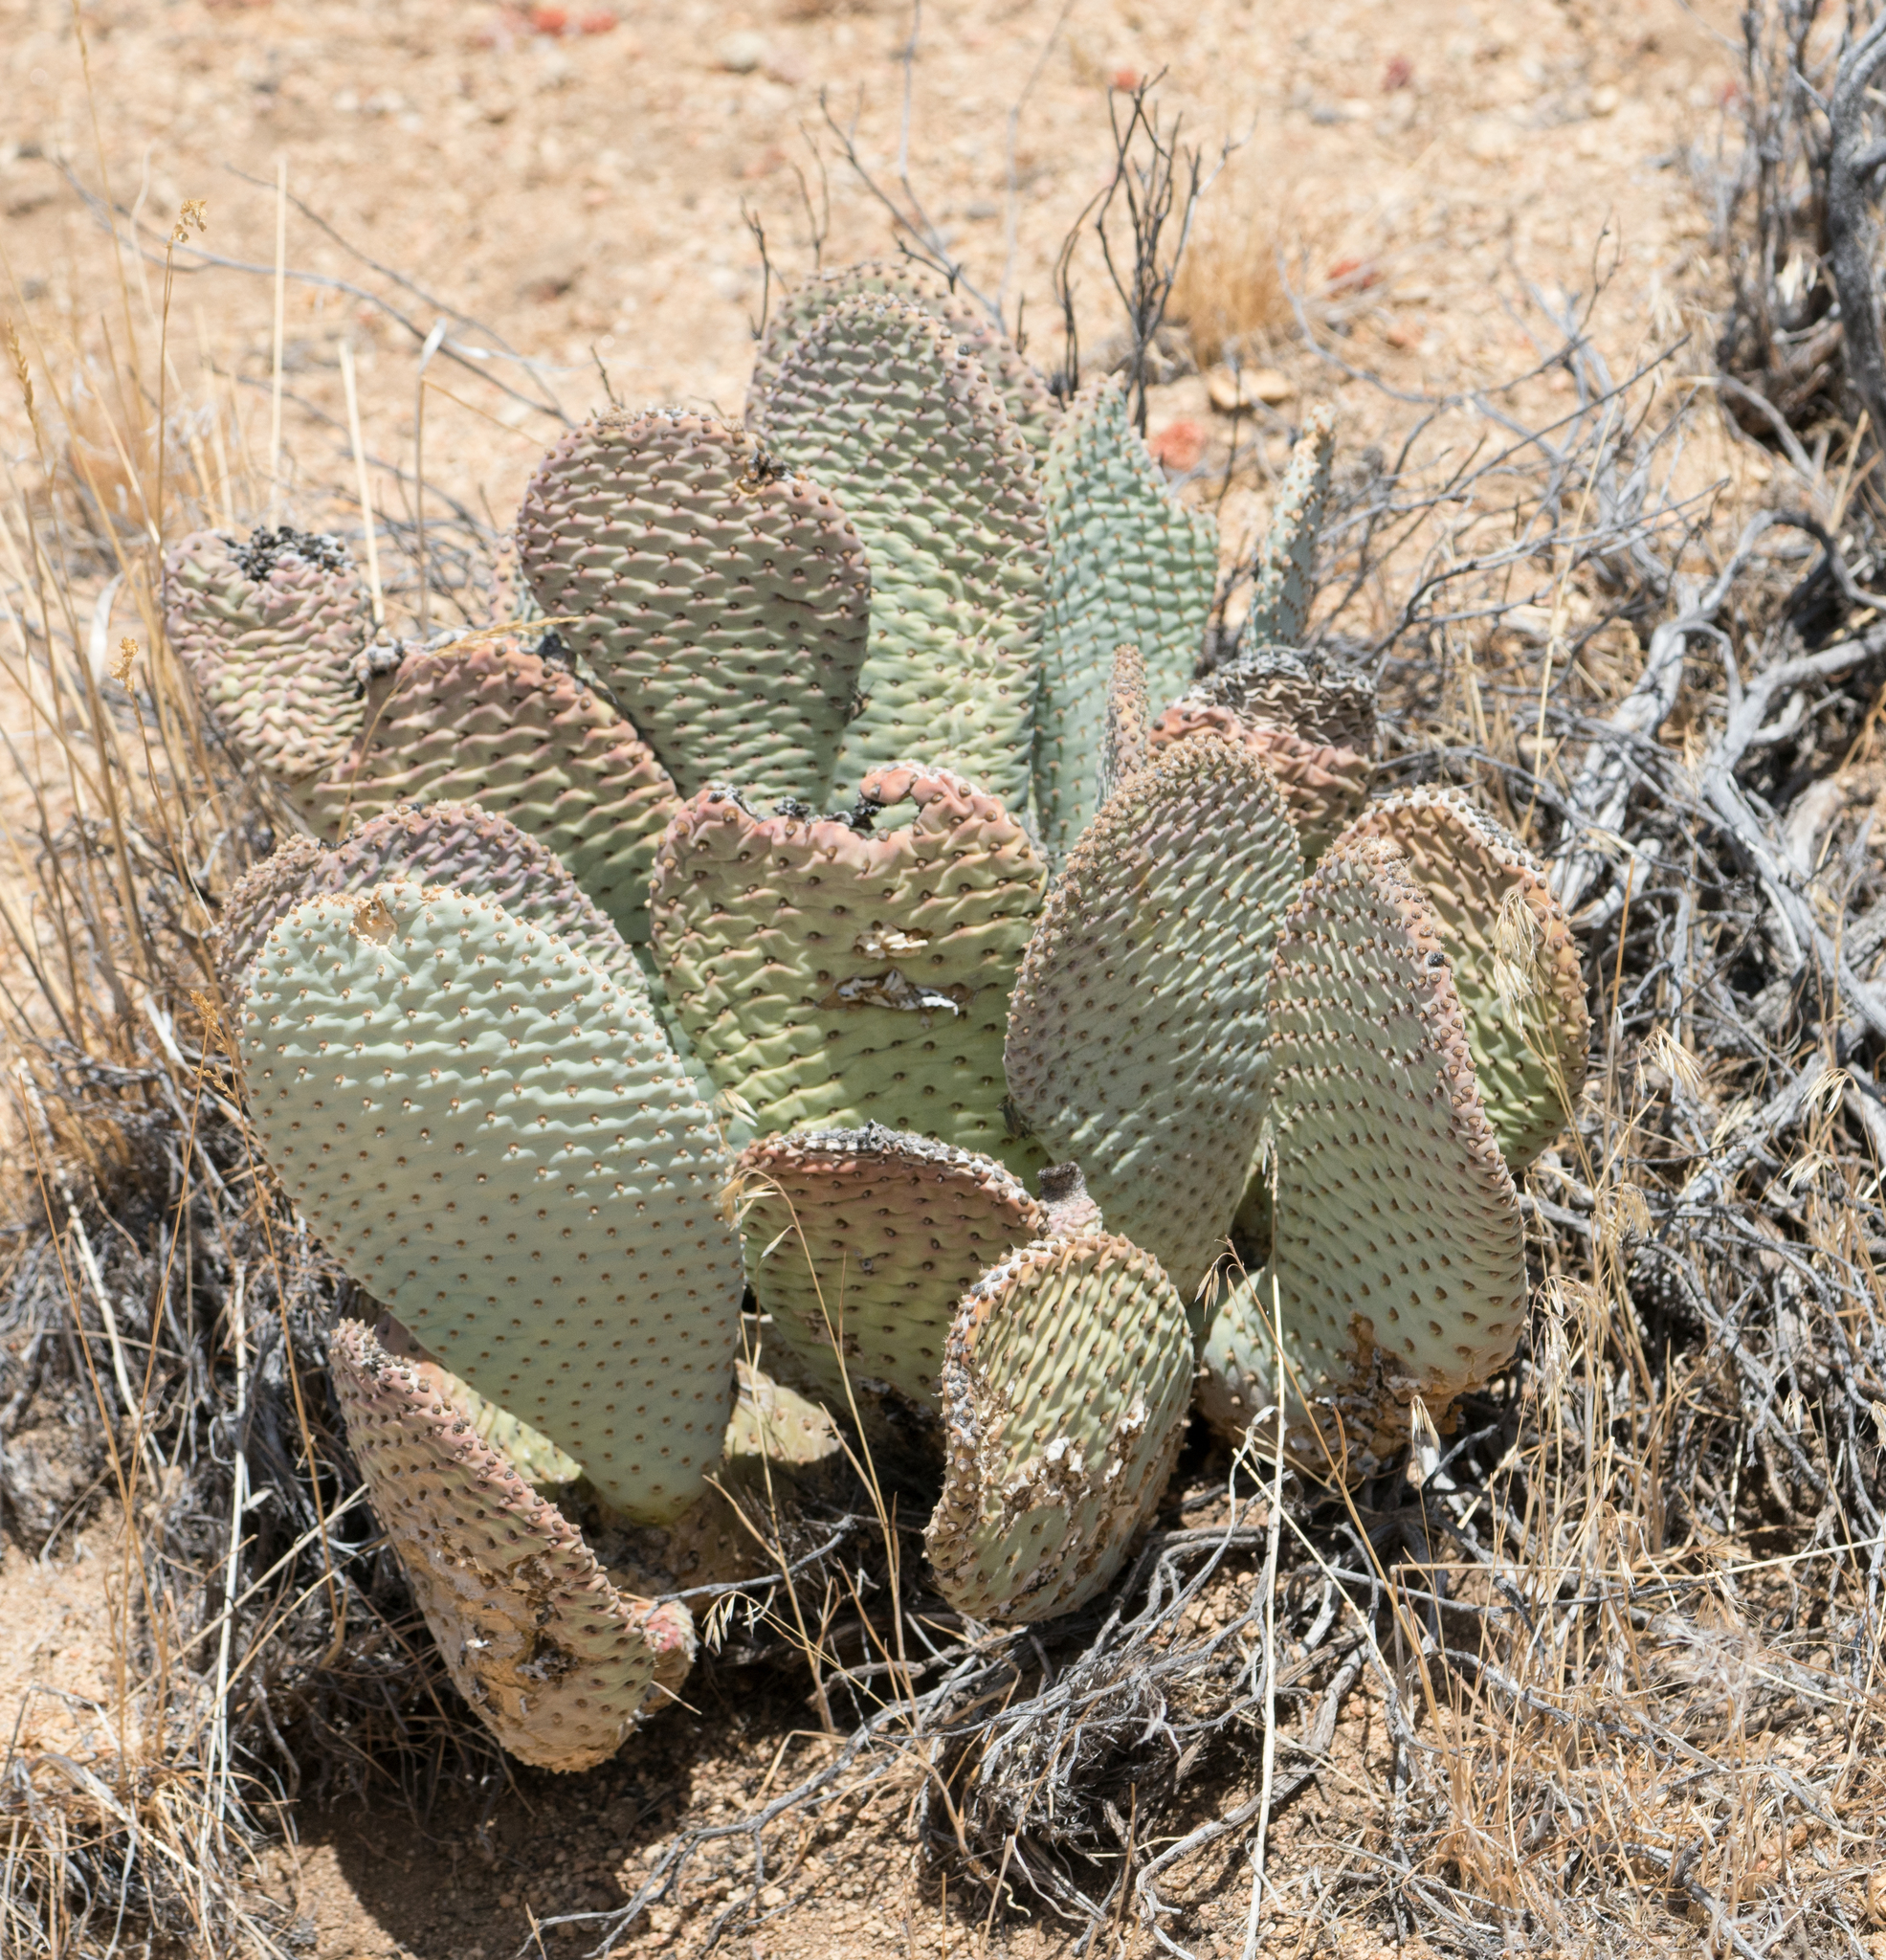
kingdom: Plantae
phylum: Tracheophyta
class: Magnoliopsida
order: Caryophyllales
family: Cactaceae
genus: Opuntia
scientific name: Opuntia basilaris
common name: Beavertail prickly-pear
